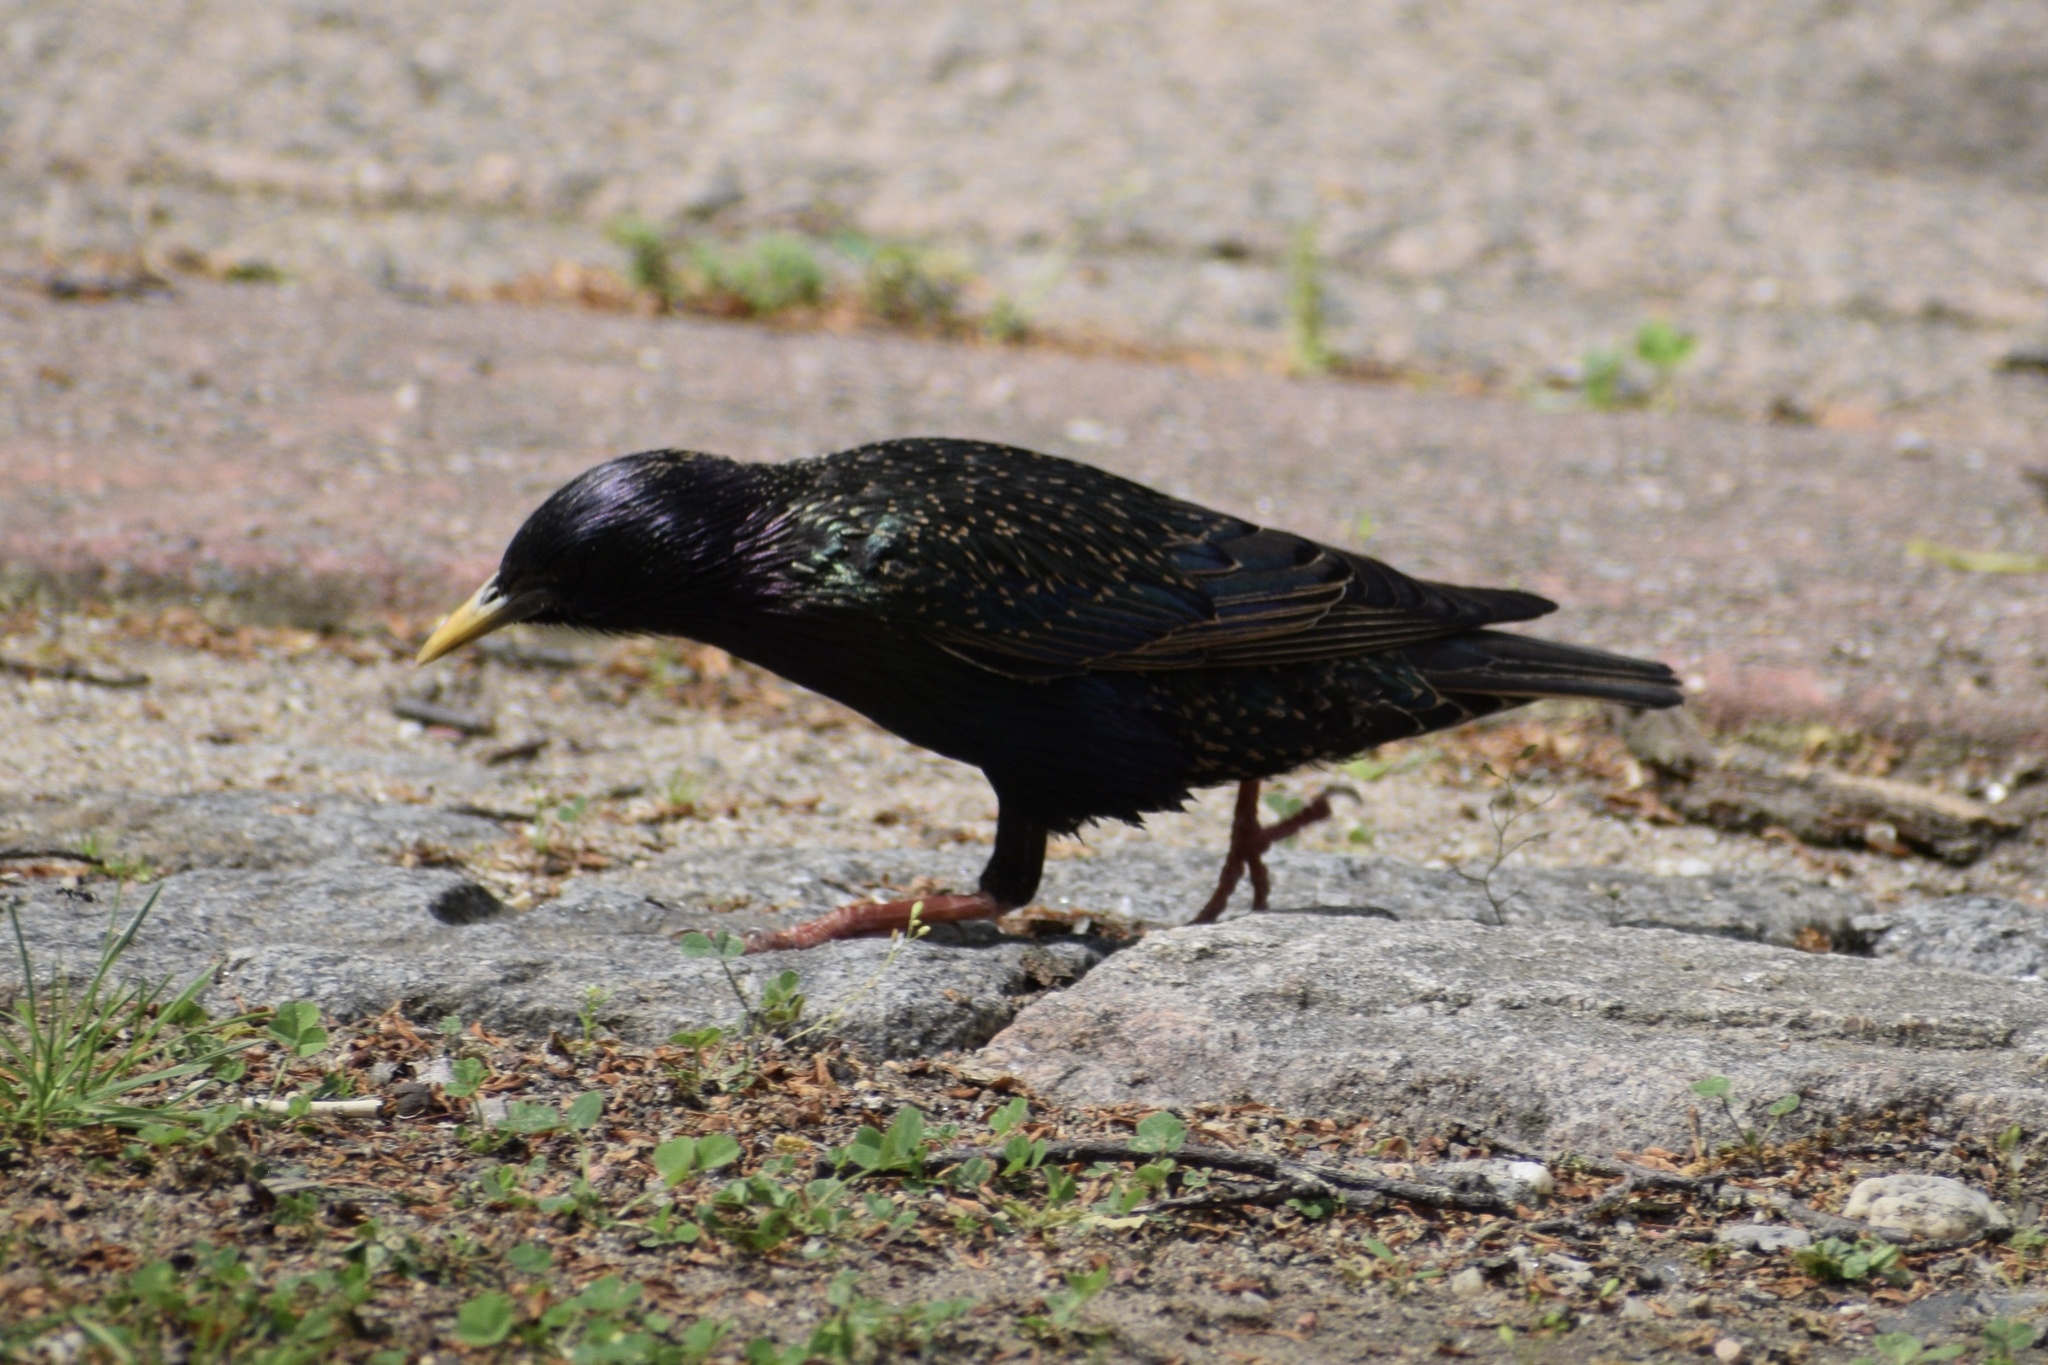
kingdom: Animalia
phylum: Chordata
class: Aves
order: Passeriformes
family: Sturnidae
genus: Sturnus
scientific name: Sturnus vulgaris
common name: Common starling
